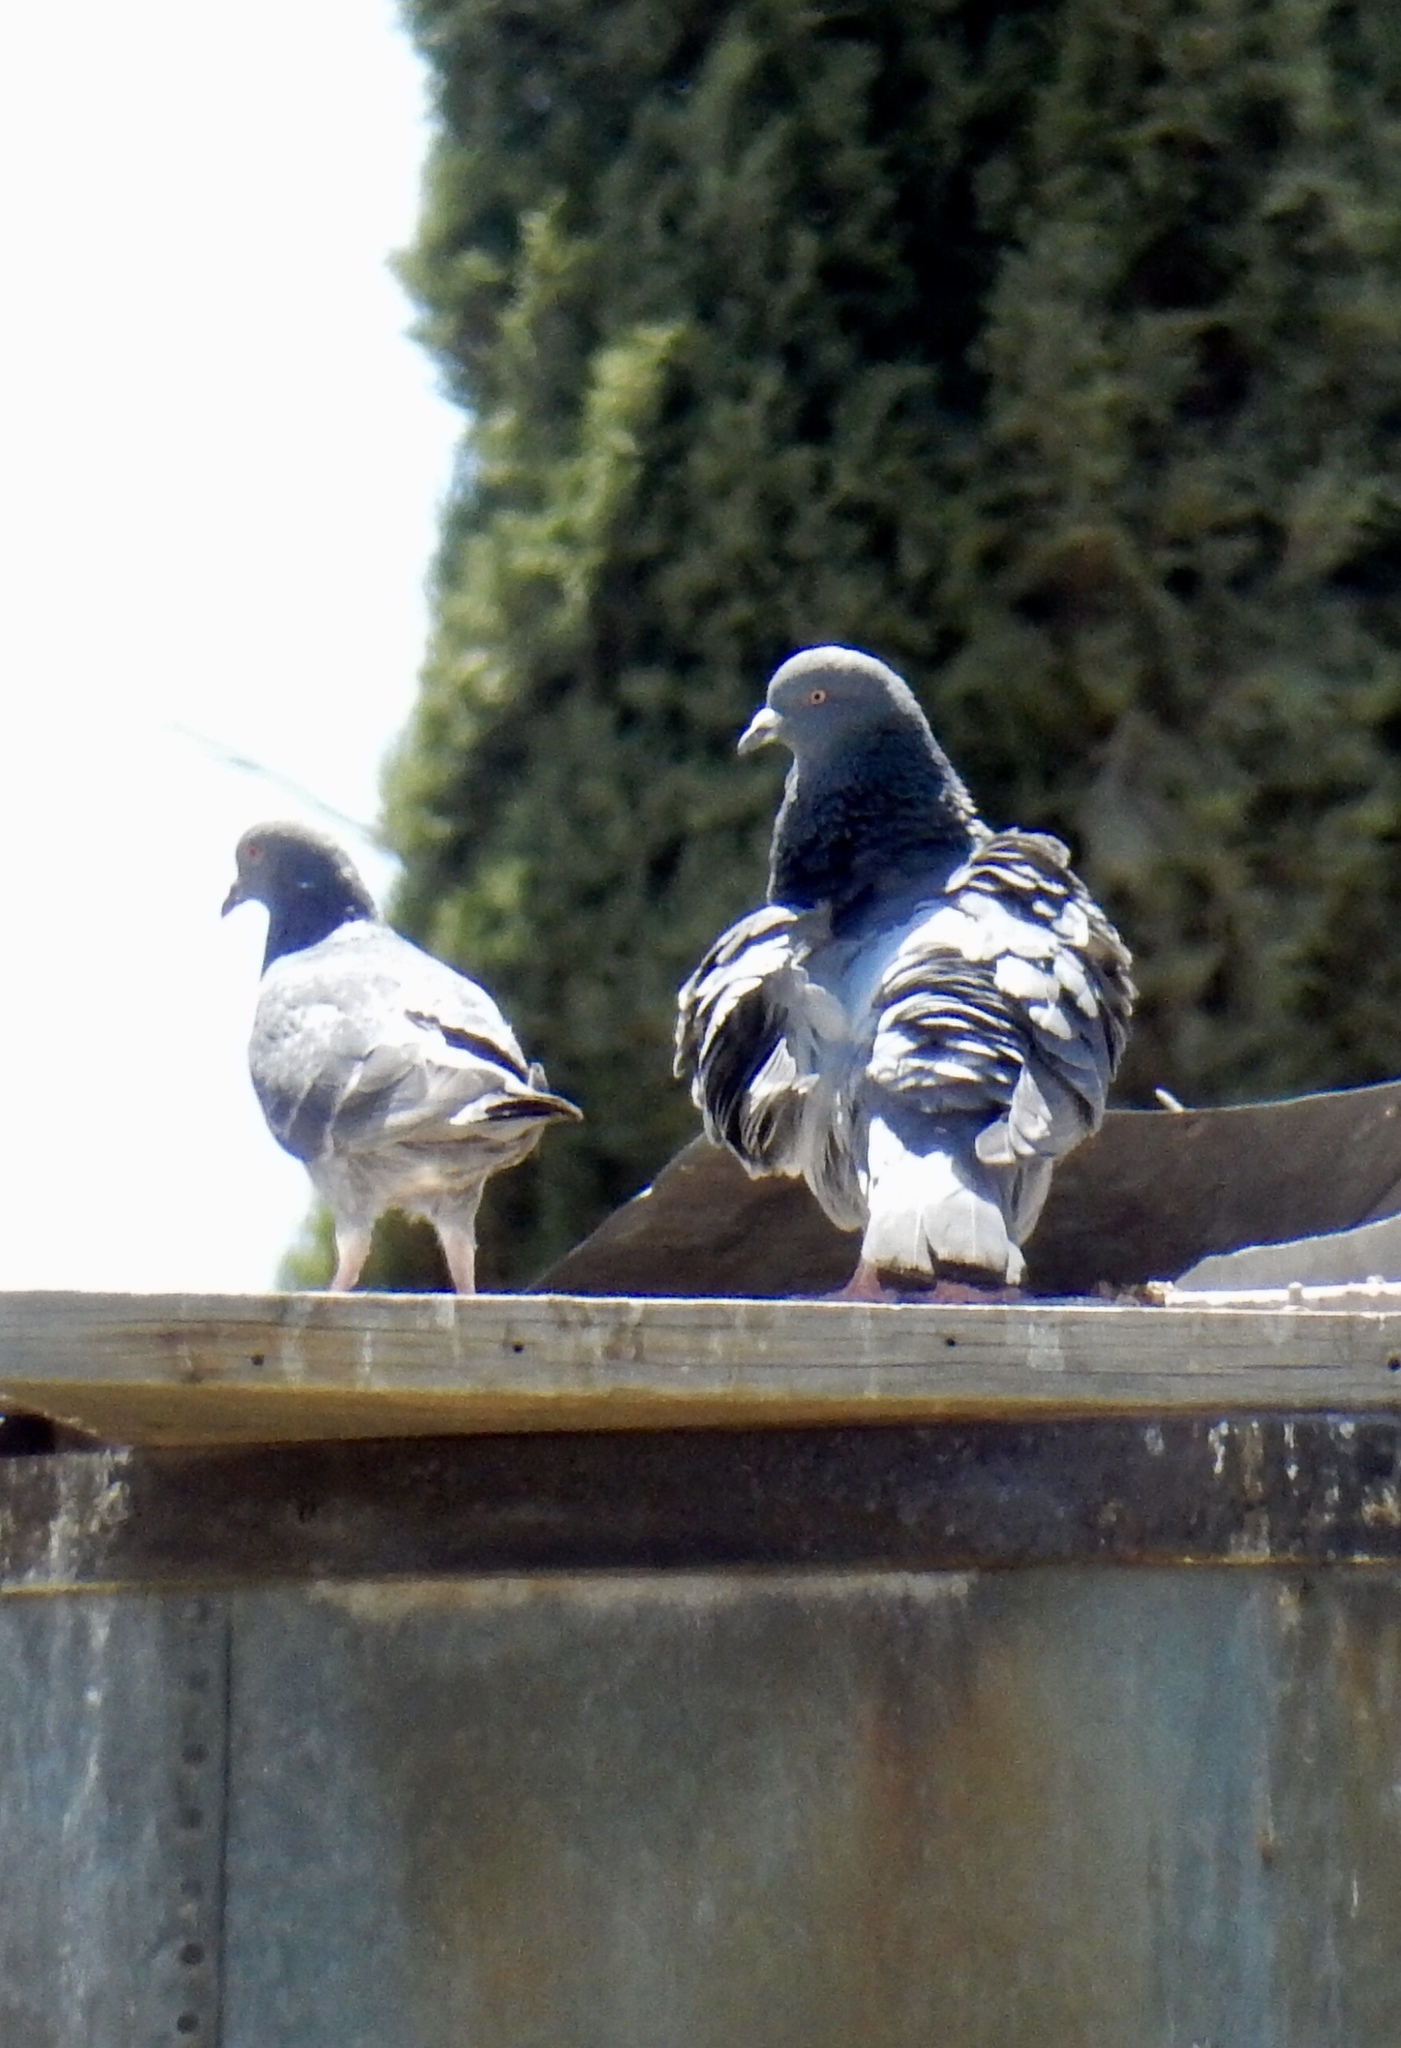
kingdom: Animalia
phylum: Chordata
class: Aves
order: Columbiformes
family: Columbidae
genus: Columba
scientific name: Columba livia
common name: Rock pigeon
